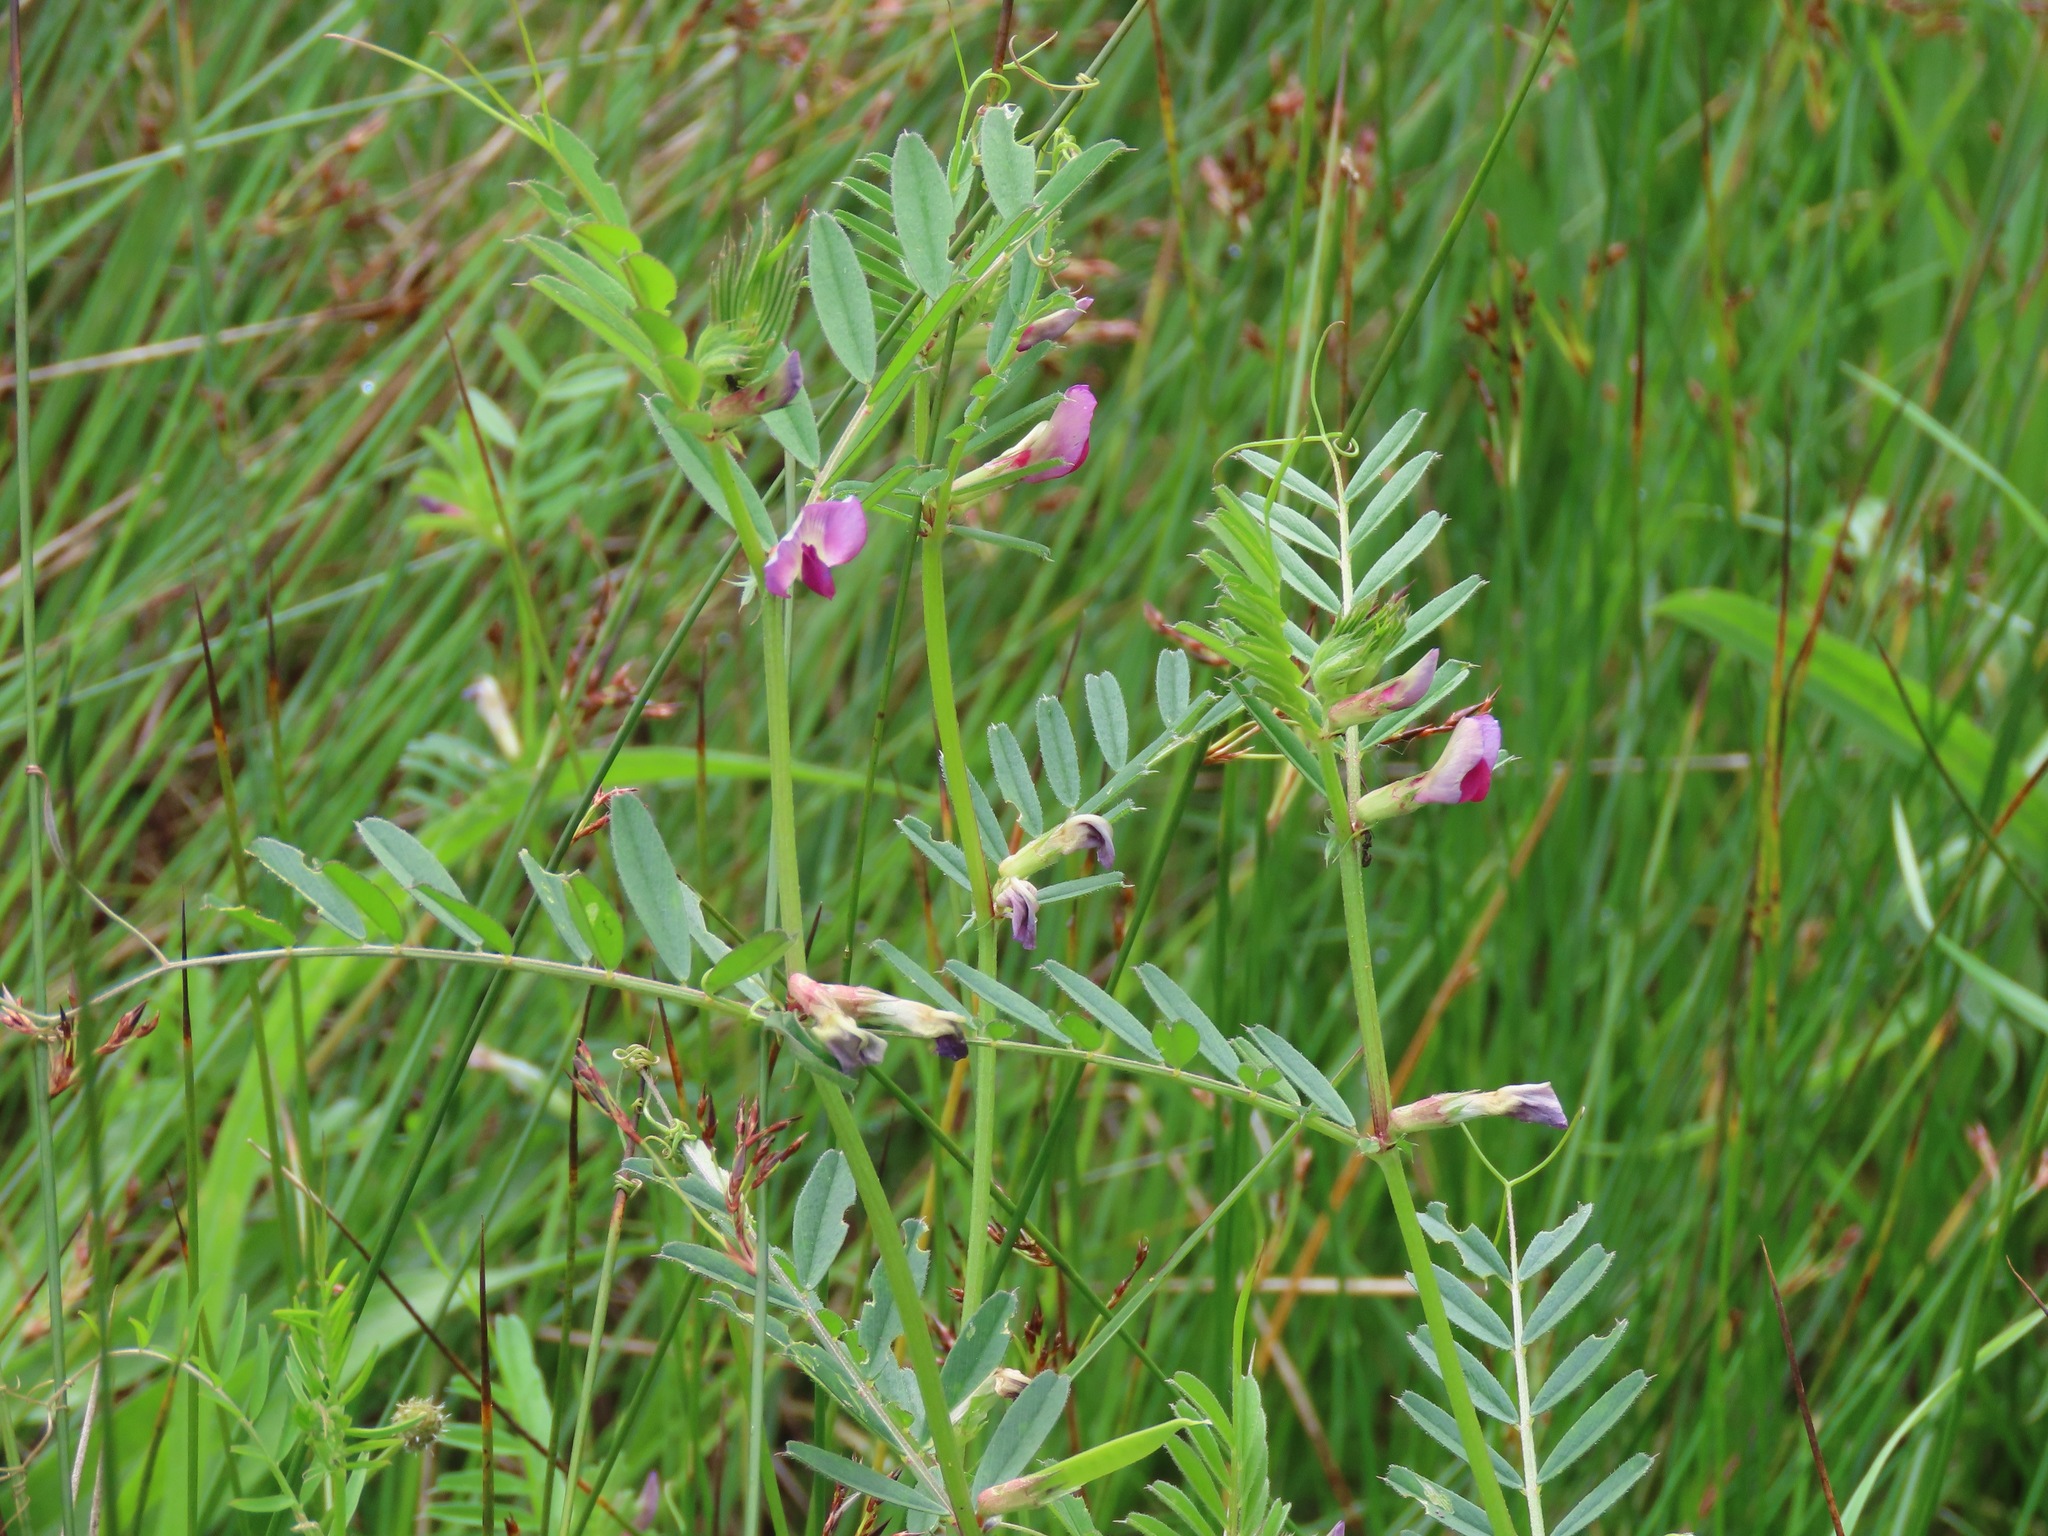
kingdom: Plantae
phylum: Tracheophyta
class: Magnoliopsida
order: Fabales
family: Fabaceae
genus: Vicia
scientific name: Vicia sativa
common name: Garden vetch
